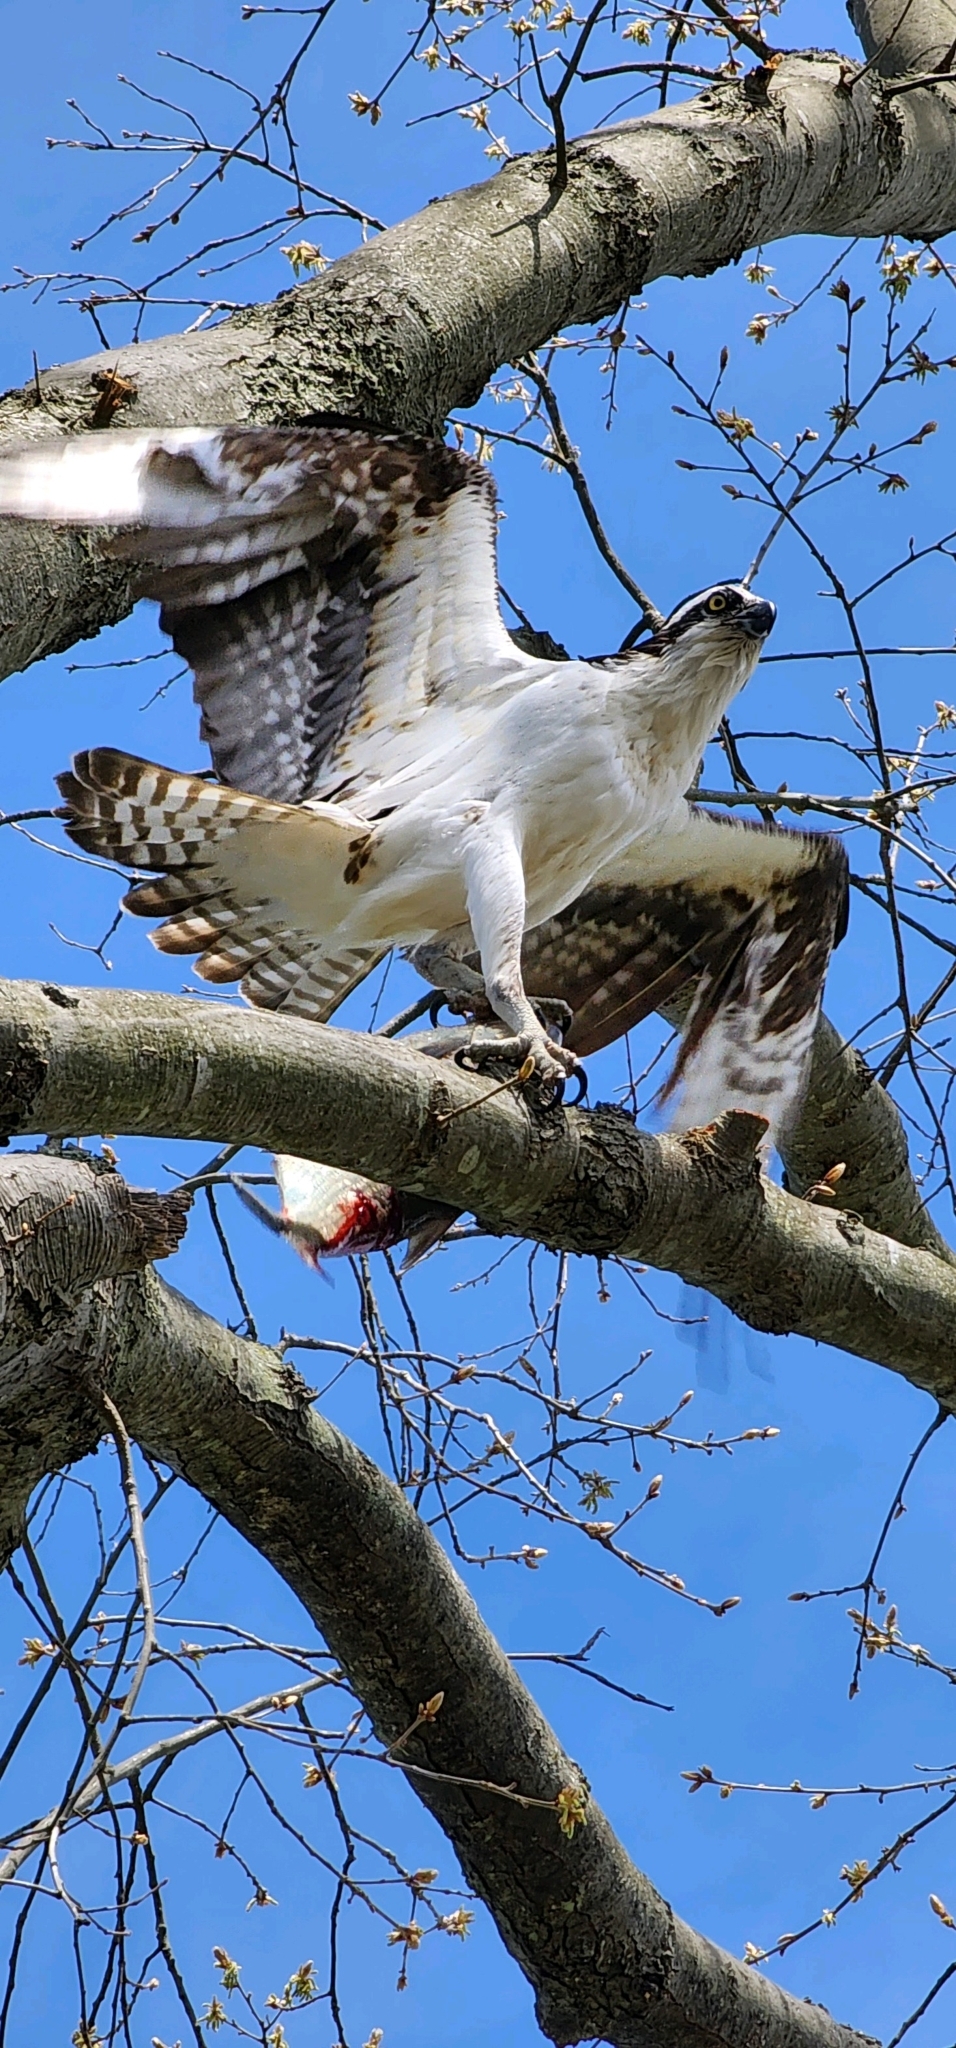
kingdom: Animalia
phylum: Chordata
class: Aves
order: Accipitriformes
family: Pandionidae
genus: Pandion
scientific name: Pandion haliaetus
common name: Osprey
